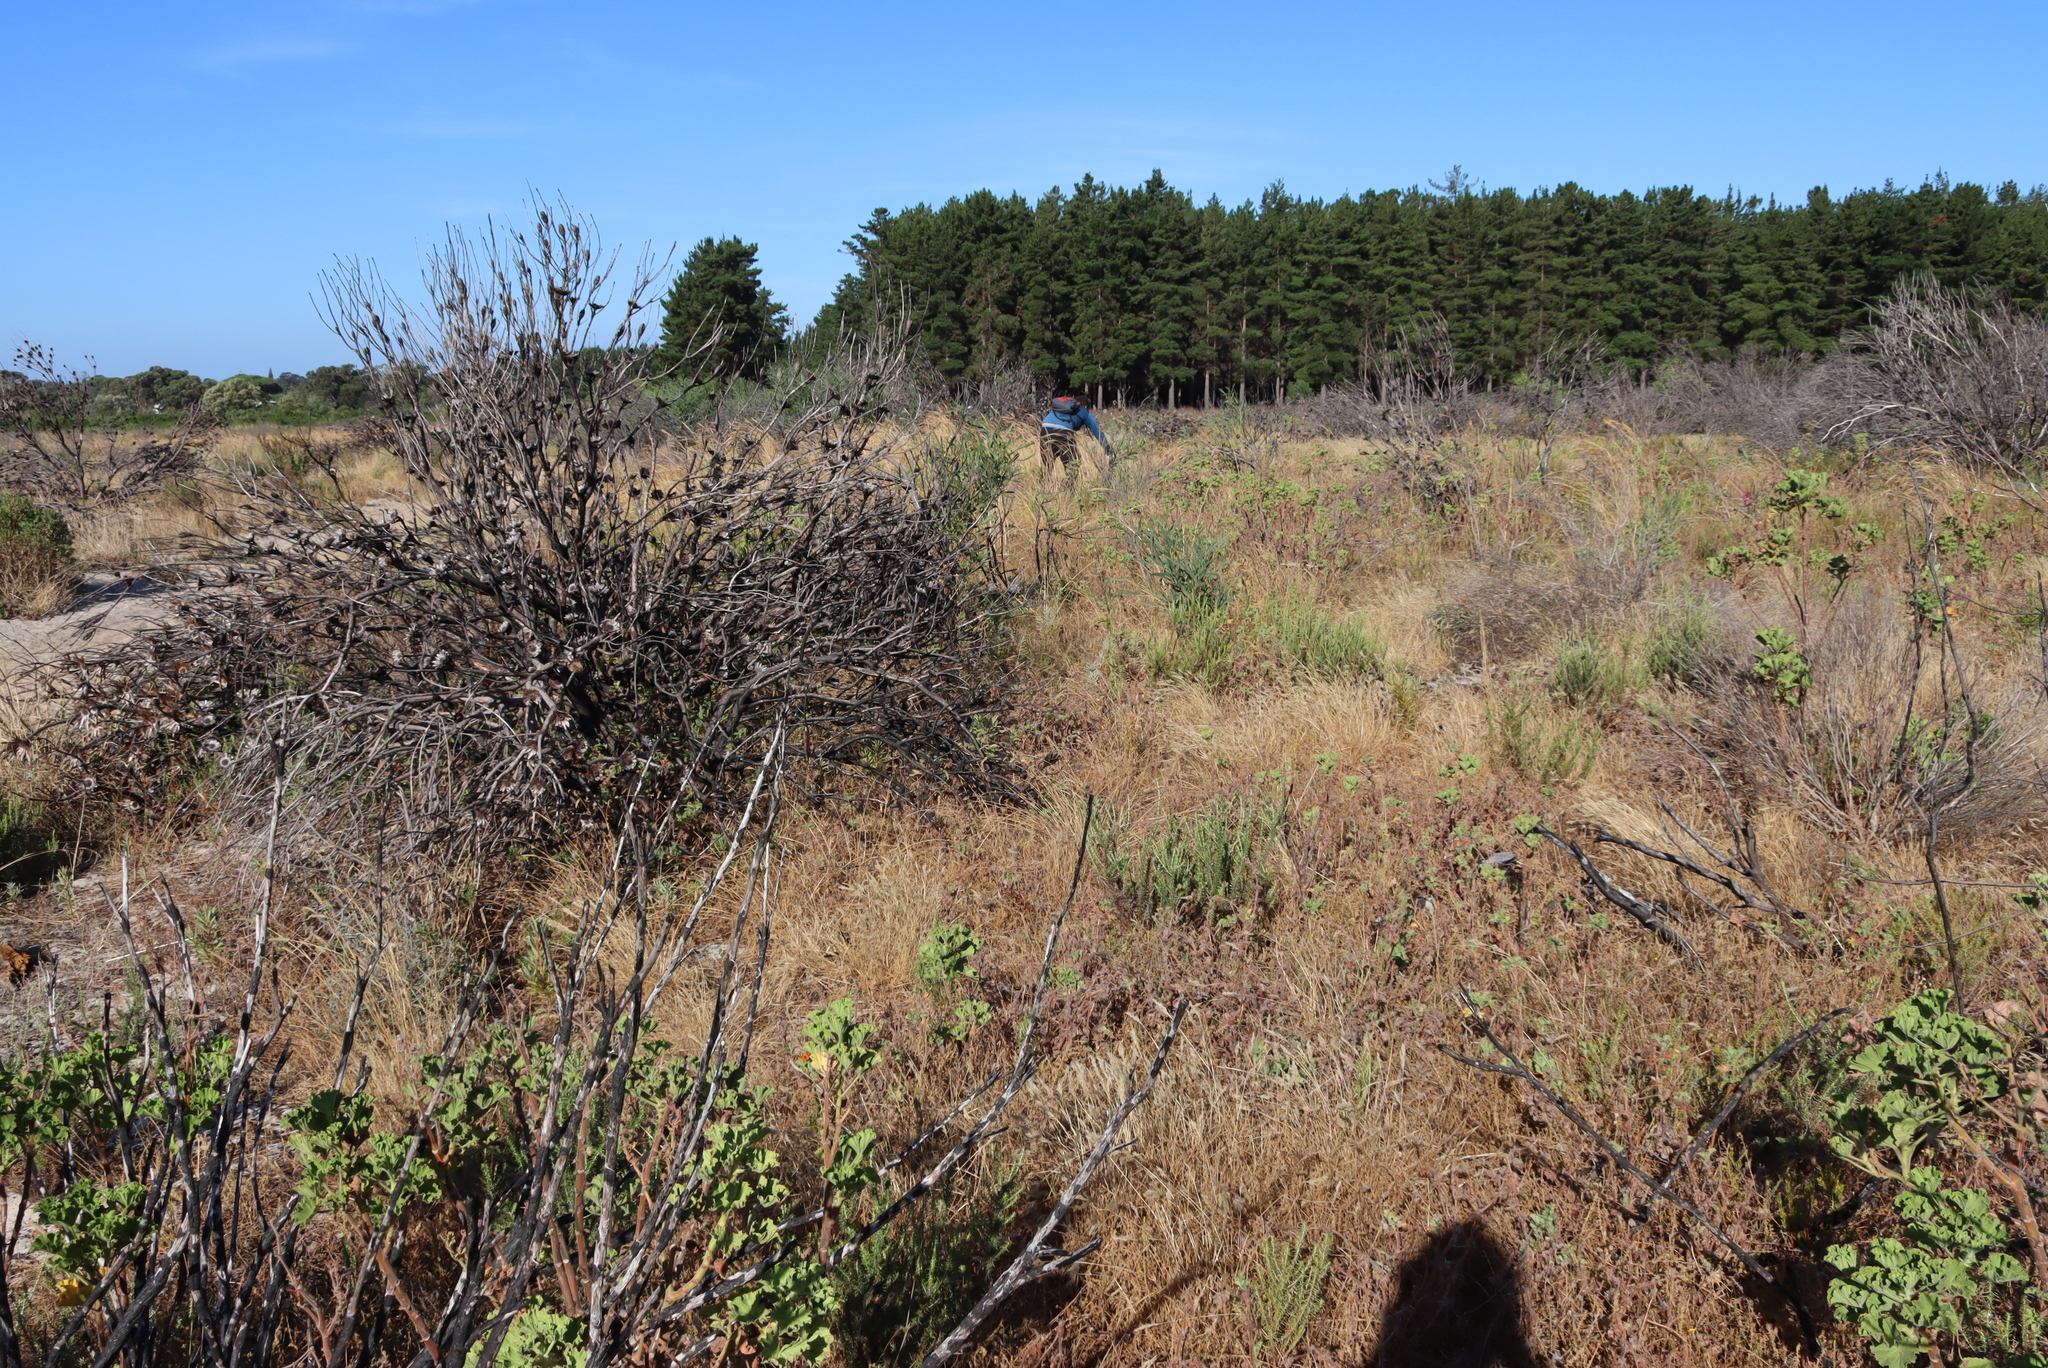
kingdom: Plantae
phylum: Tracheophyta
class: Magnoliopsida
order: Fabales
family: Fabaceae
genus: Acacia
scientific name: Acacia saligna
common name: Orange wattle
